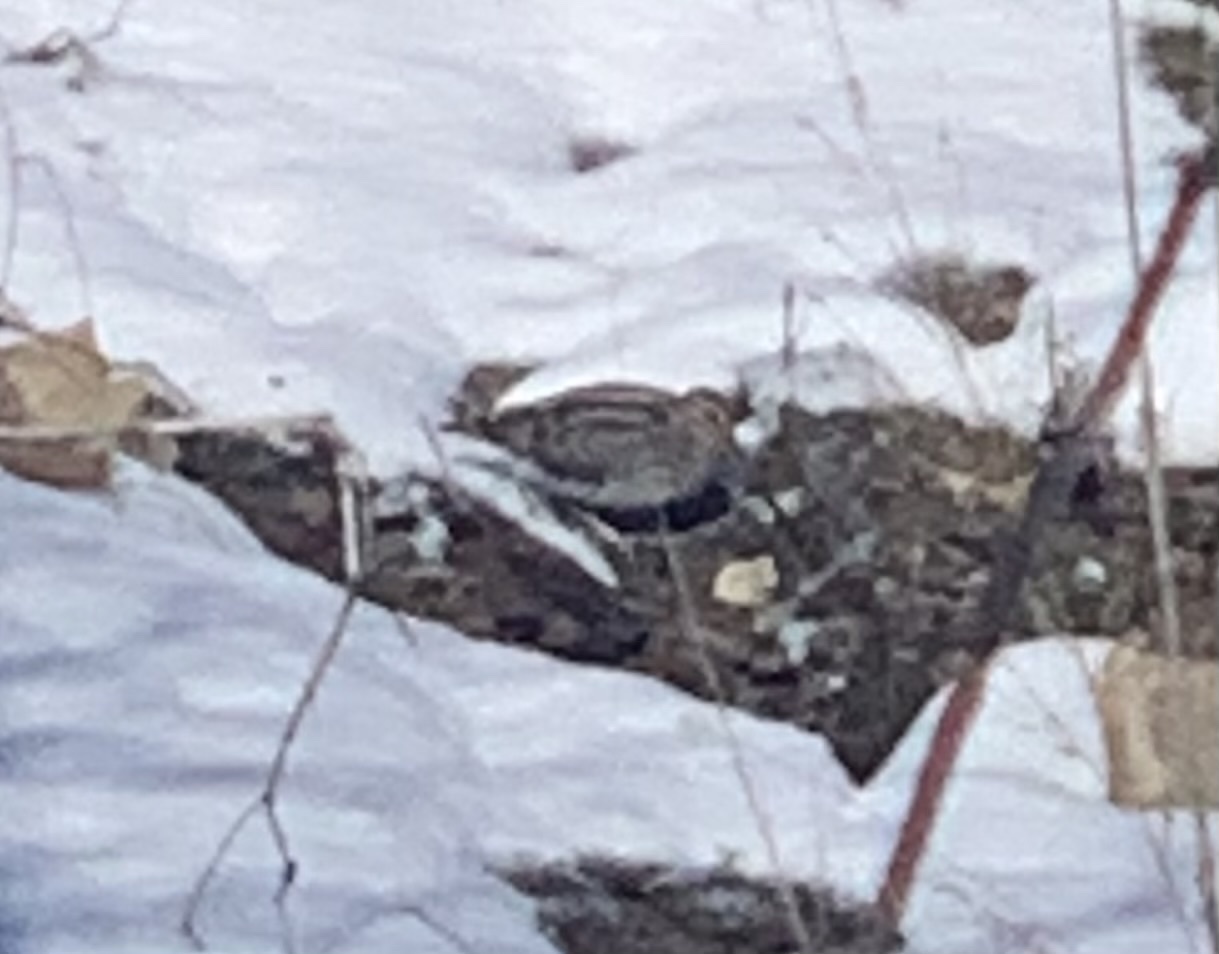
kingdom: Animalia
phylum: Chordata
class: Aves
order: Charadriiformes
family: Scolopacidae
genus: Gallinago
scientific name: Gallinago delicata
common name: Wilson's snipe
